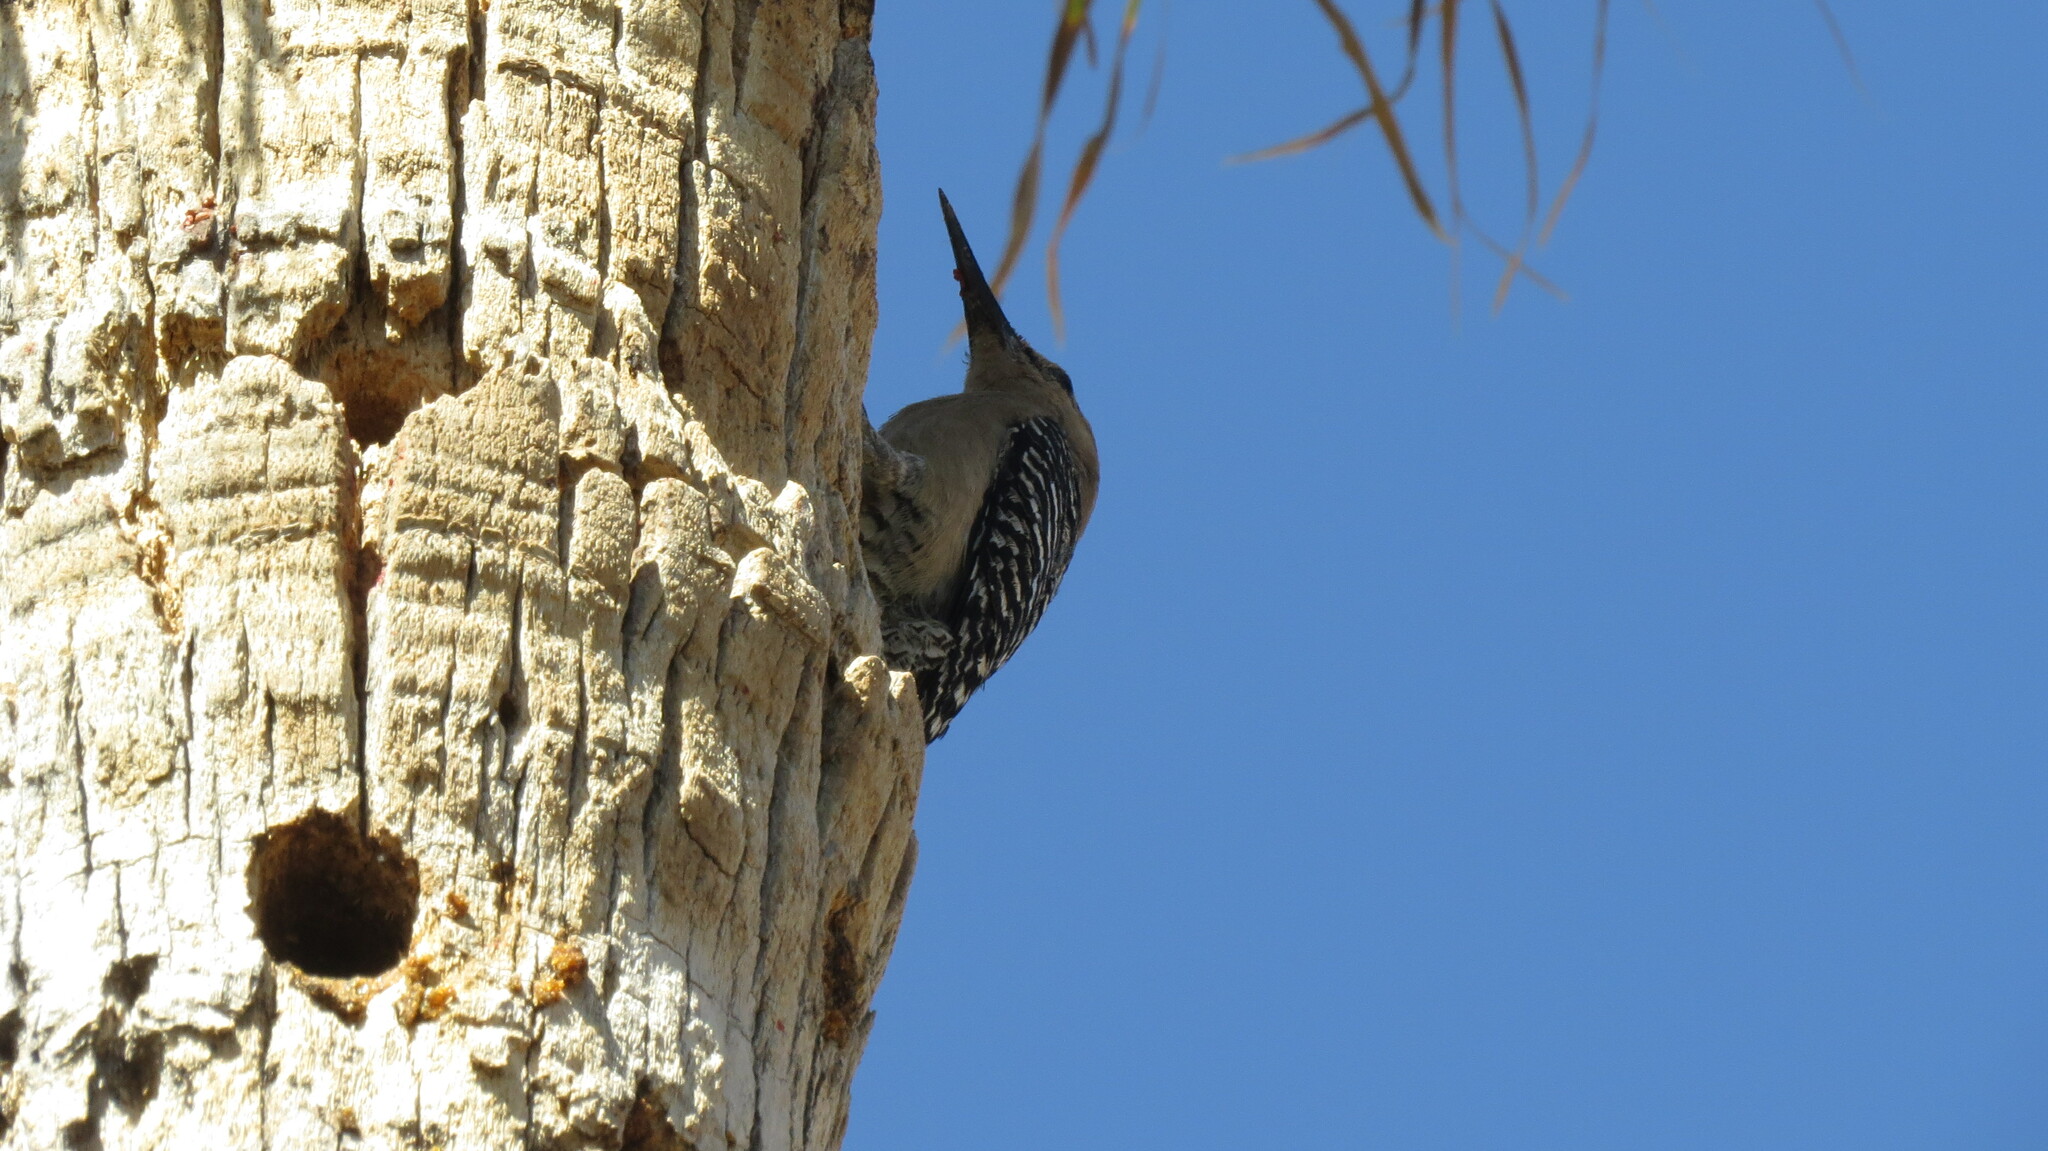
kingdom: Animalia
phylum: Chordata
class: Aves
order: Piciformes
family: Picidae
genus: Melanerpes
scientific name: Melanerpes uropygialis
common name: Gila woodpecker
